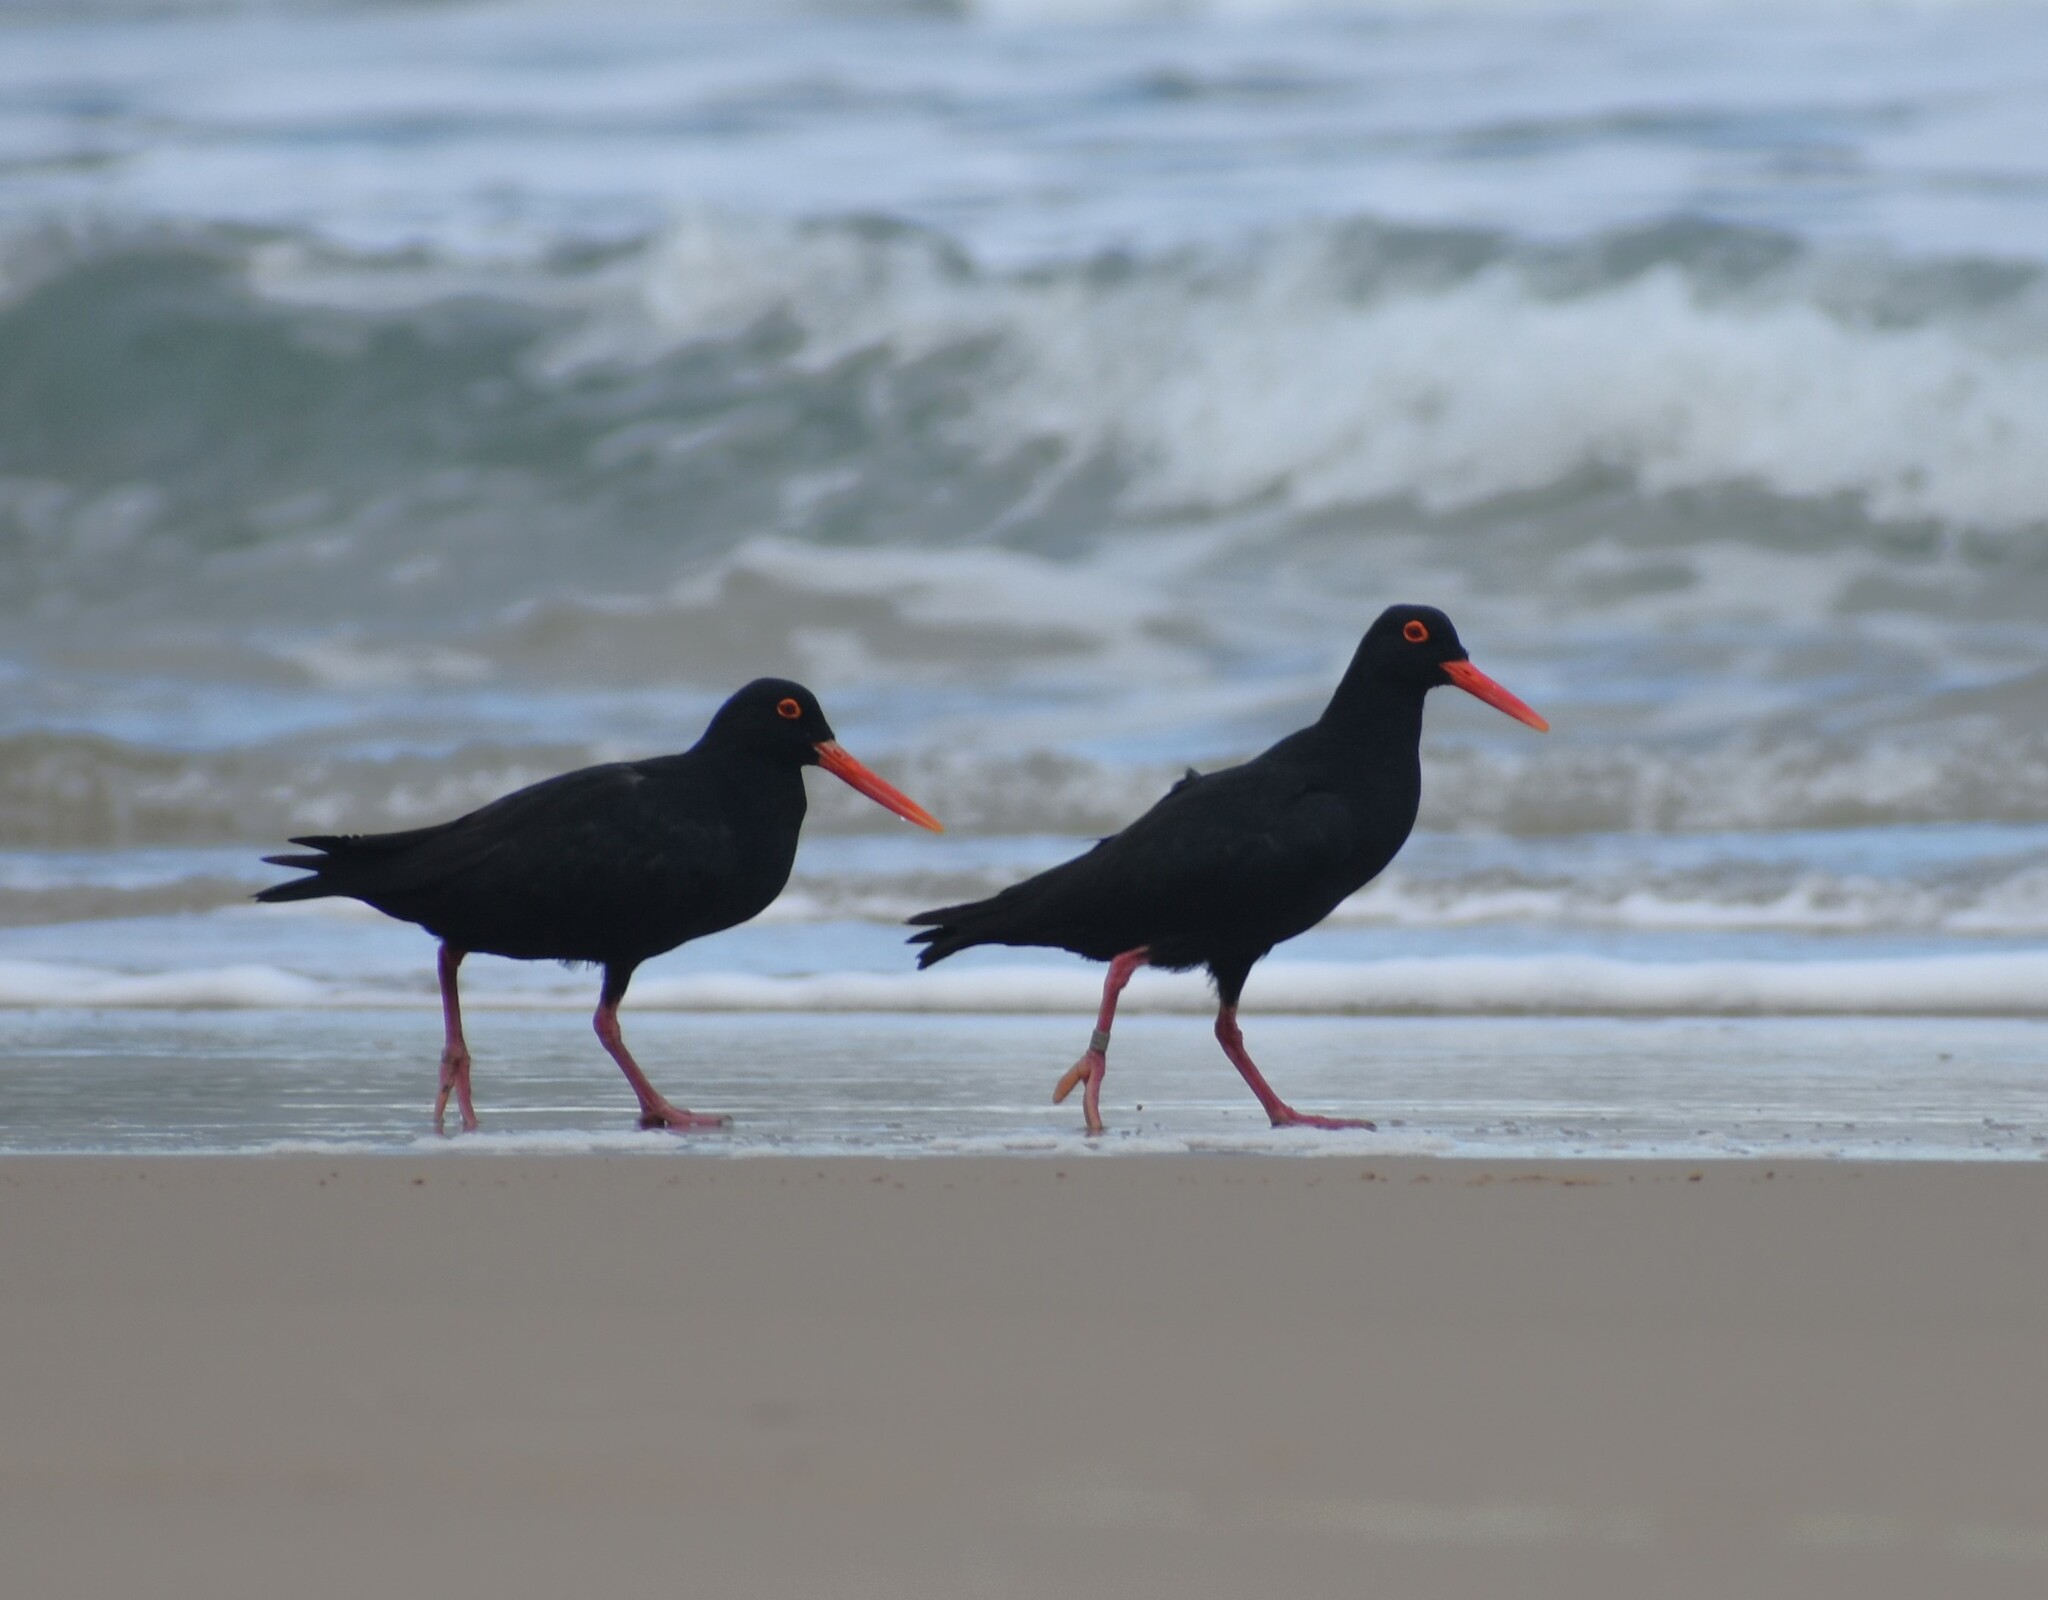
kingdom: Animalia
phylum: Chordata
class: Aves
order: Charadriiformes
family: Haematopodidae
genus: Haematopus
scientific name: Haematopus moquini
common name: African oystercatcher
